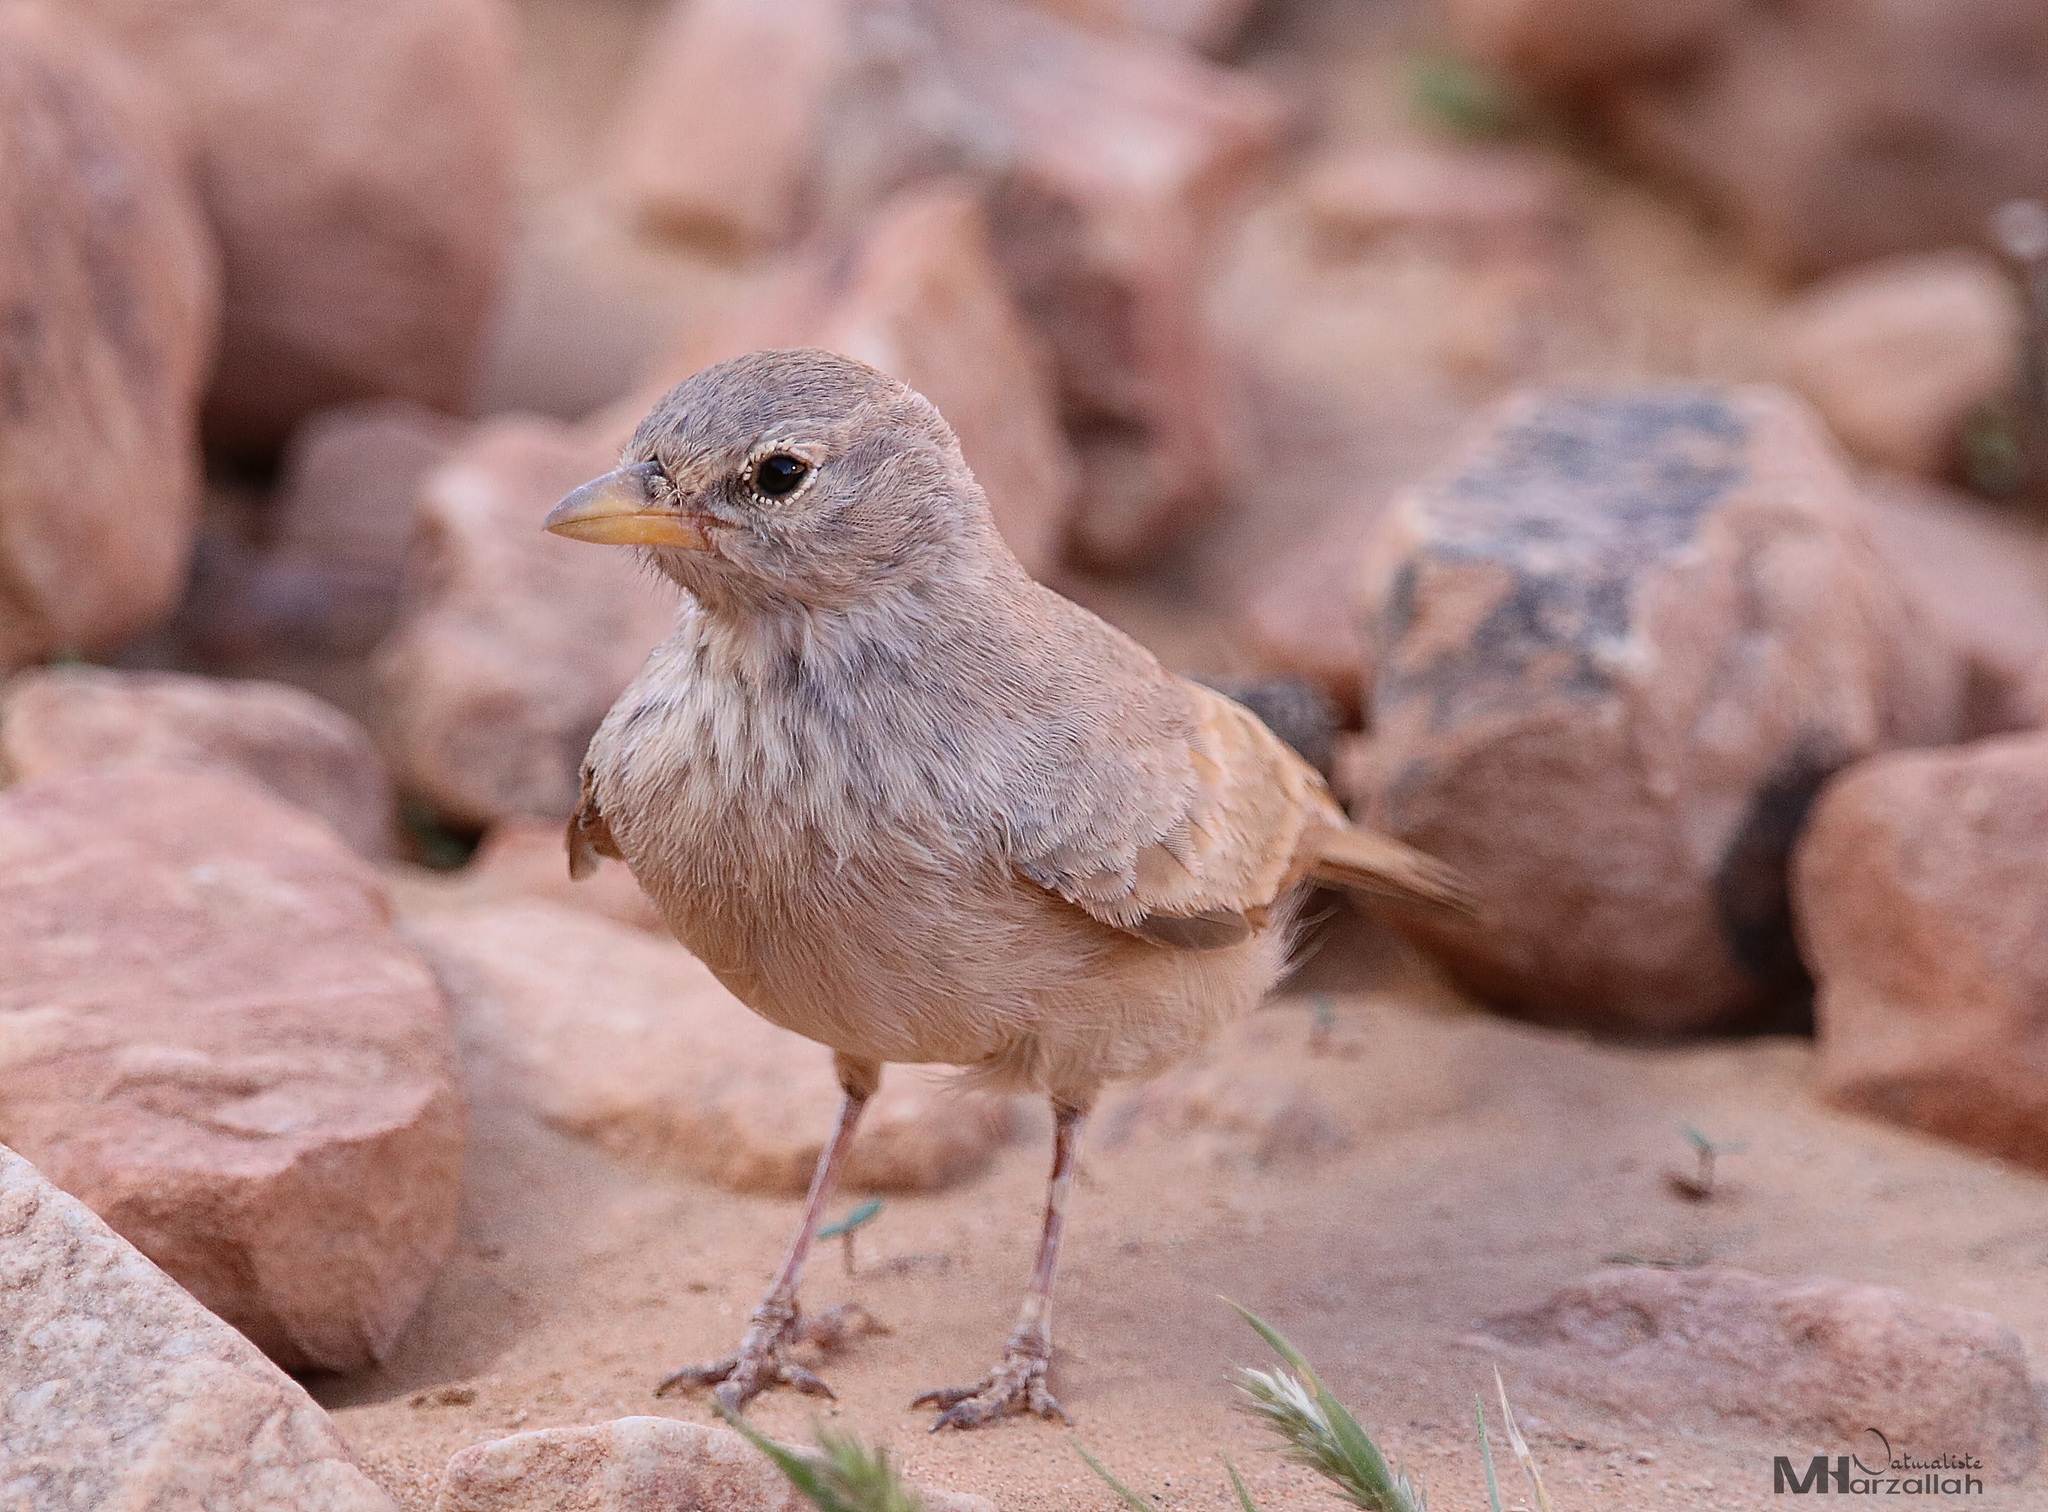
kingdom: Animalia
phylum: Chordata
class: Aves
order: Passeriformes
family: Alaudidae
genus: Ammomanes
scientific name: Ammomanes deserti
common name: Desert lark
